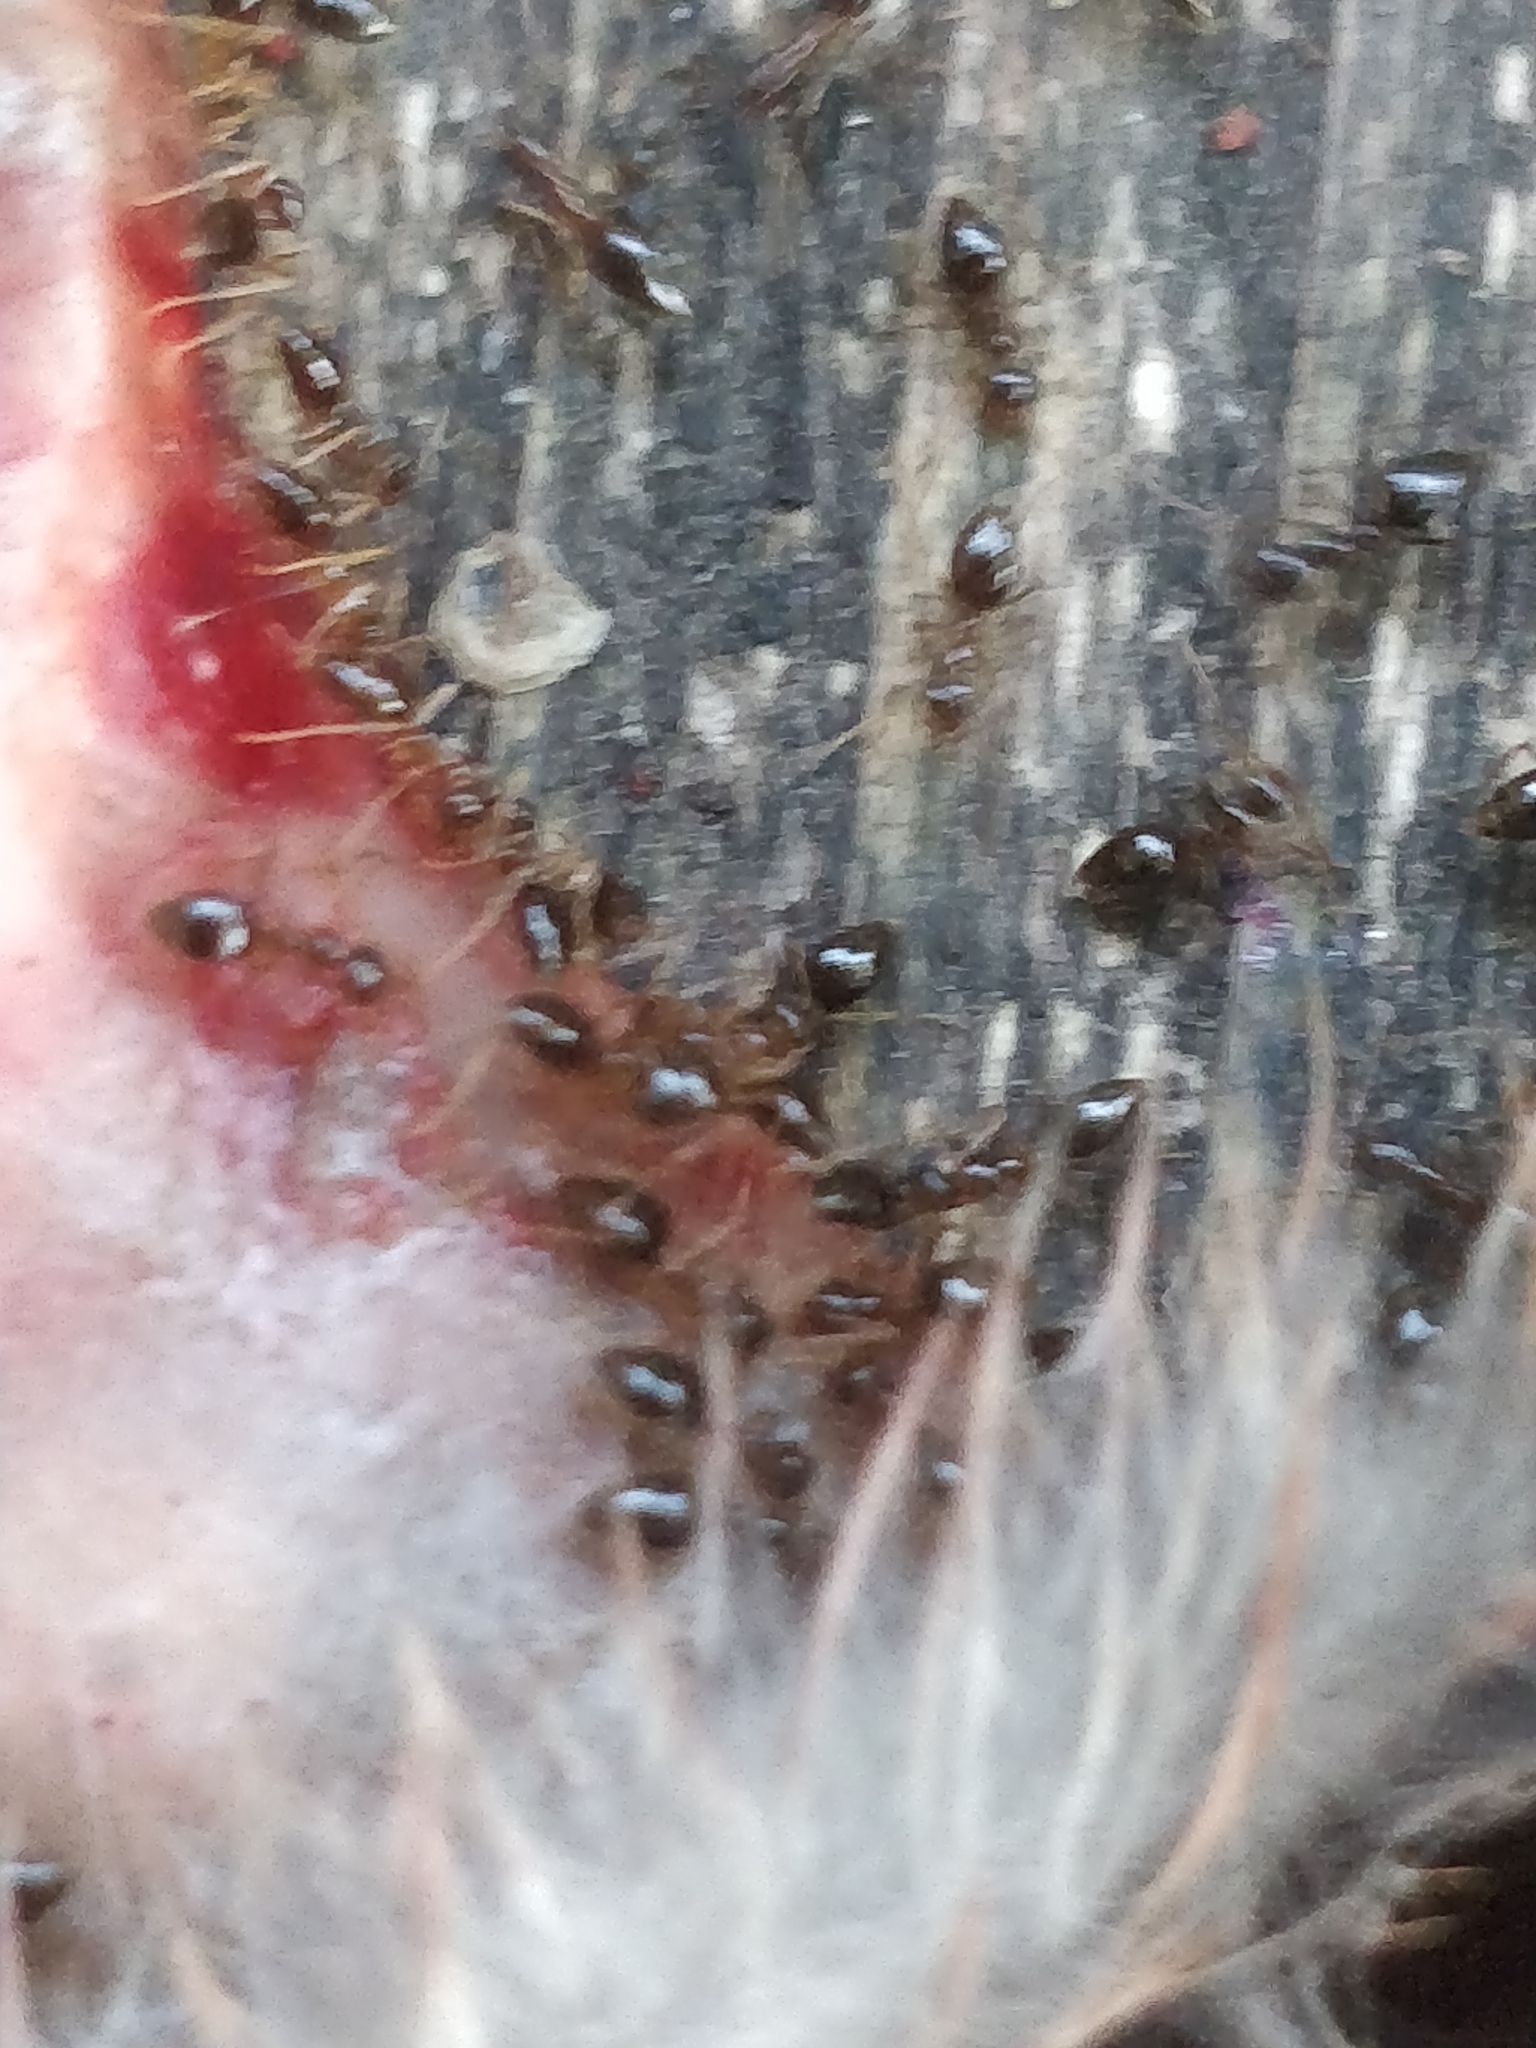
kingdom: Animalia
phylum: Arthropoda
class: Insecta
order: Hymenoptera
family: Formicidae
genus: Prenolepis
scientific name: Prenolepis imparis
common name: Small honey ant
